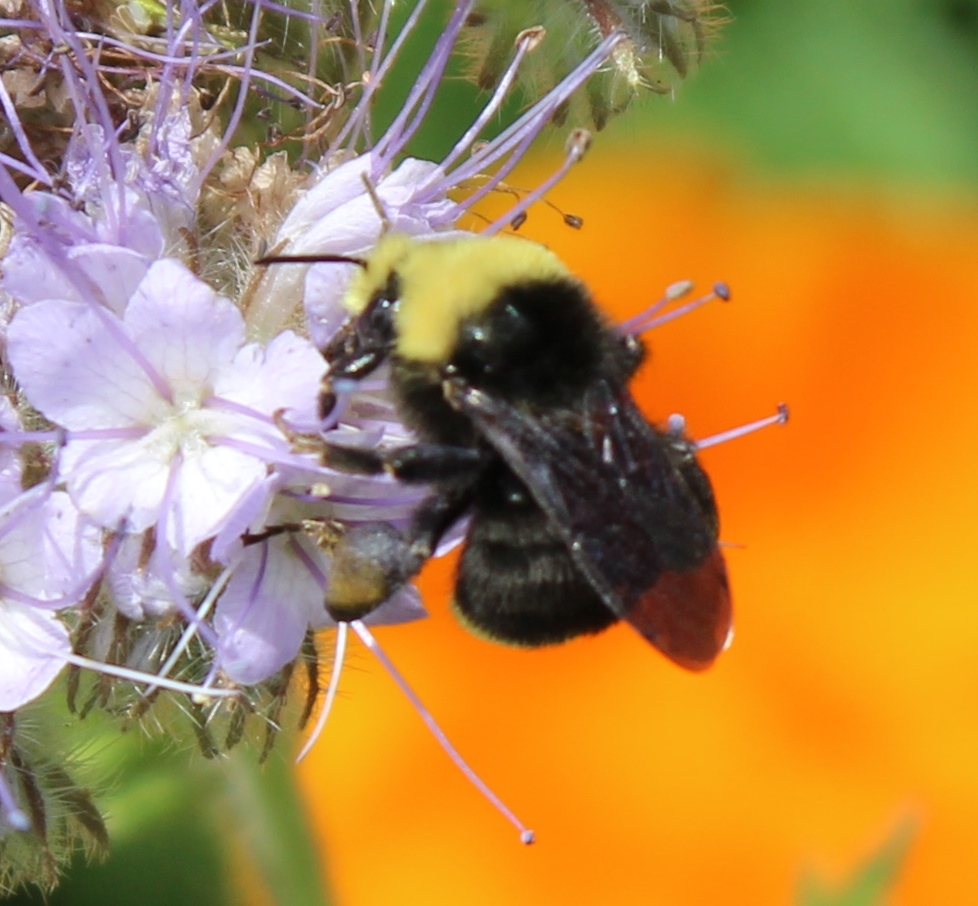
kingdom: Animalia
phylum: Arthropoda
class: Insecta
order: Hymenoptera
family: Apidae
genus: Bombus
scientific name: Bombus vosnesenskii
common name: Vosnesensky bumble bee
